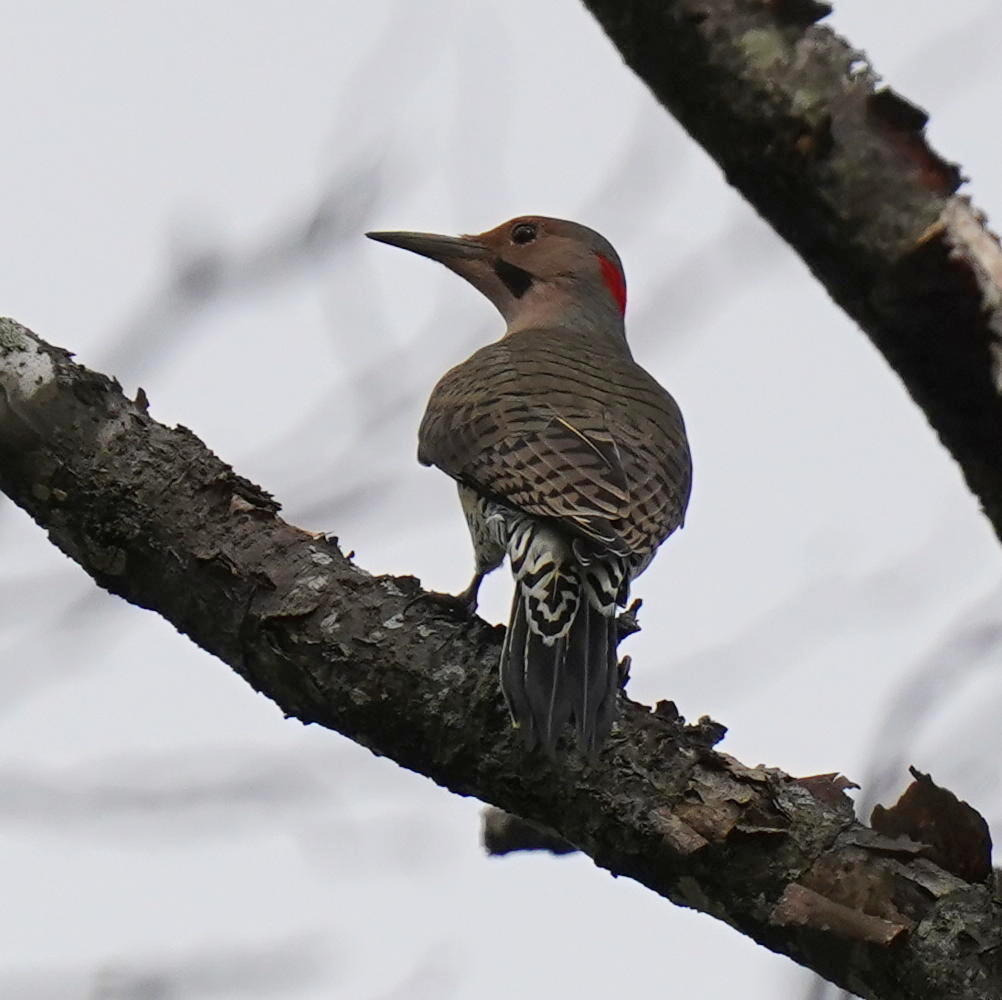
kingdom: Animalia
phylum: Chordata
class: Aves
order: Piciformes
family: Picidae
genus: Colaptes
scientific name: Colaptes auratus
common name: Northern flicker
